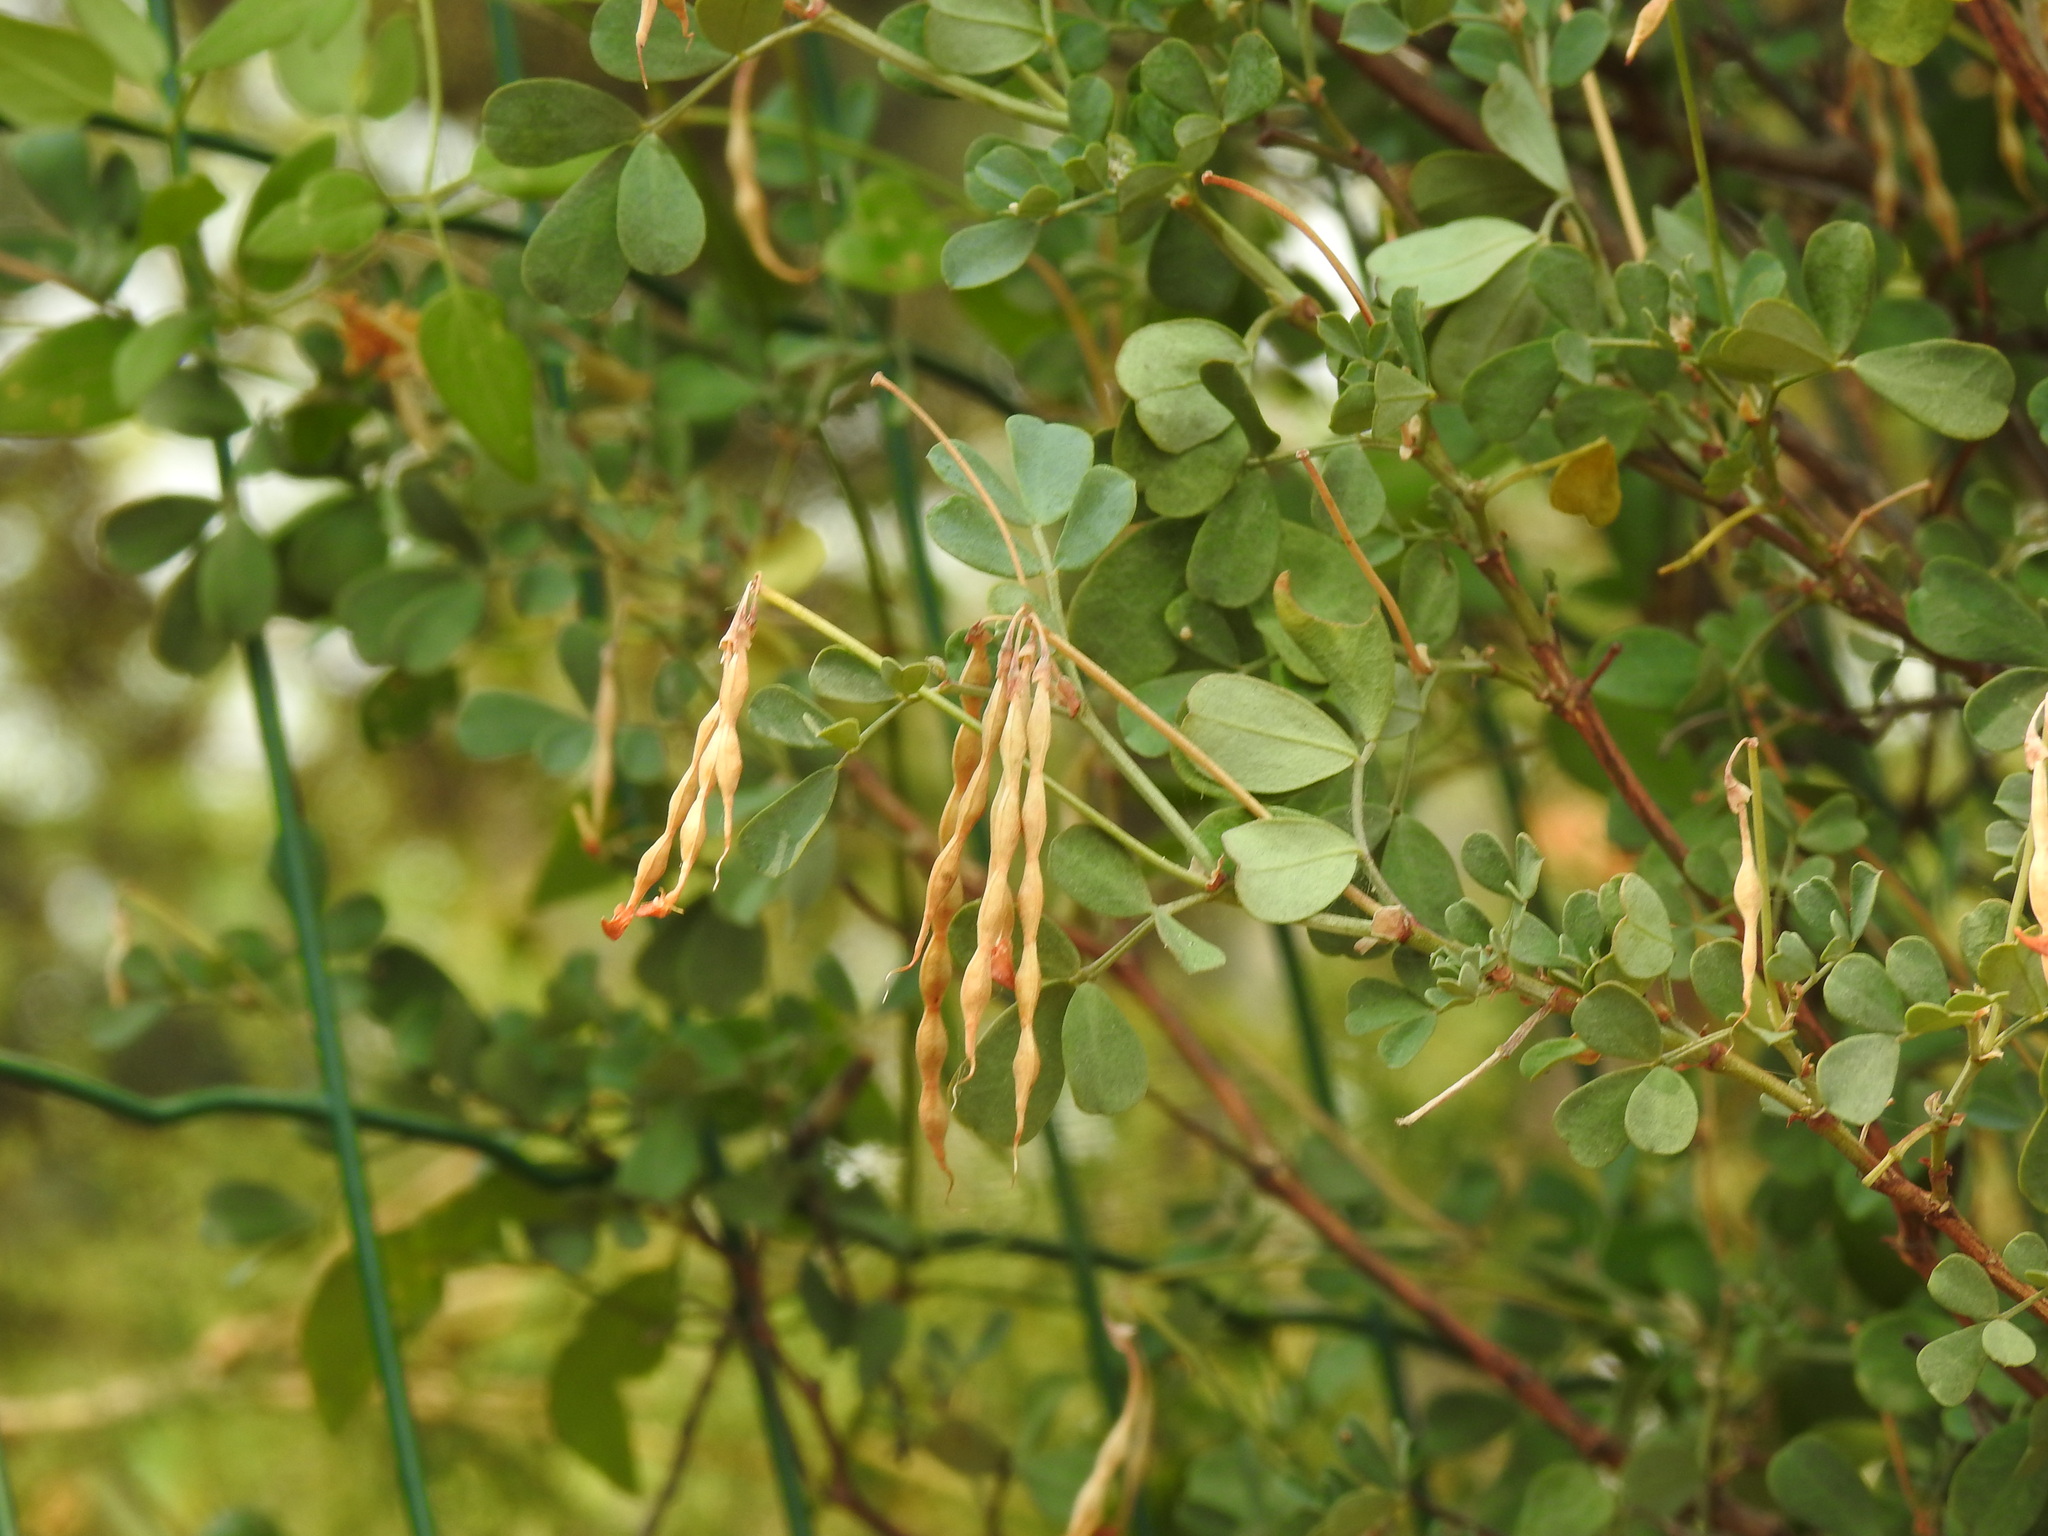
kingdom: Plantae
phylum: Tracheophyta
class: Magnoliopsida
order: Fabales
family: Fabaceae
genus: Coronilla
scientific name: Coronilla valentina
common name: Shrubby scorpion-vetch
